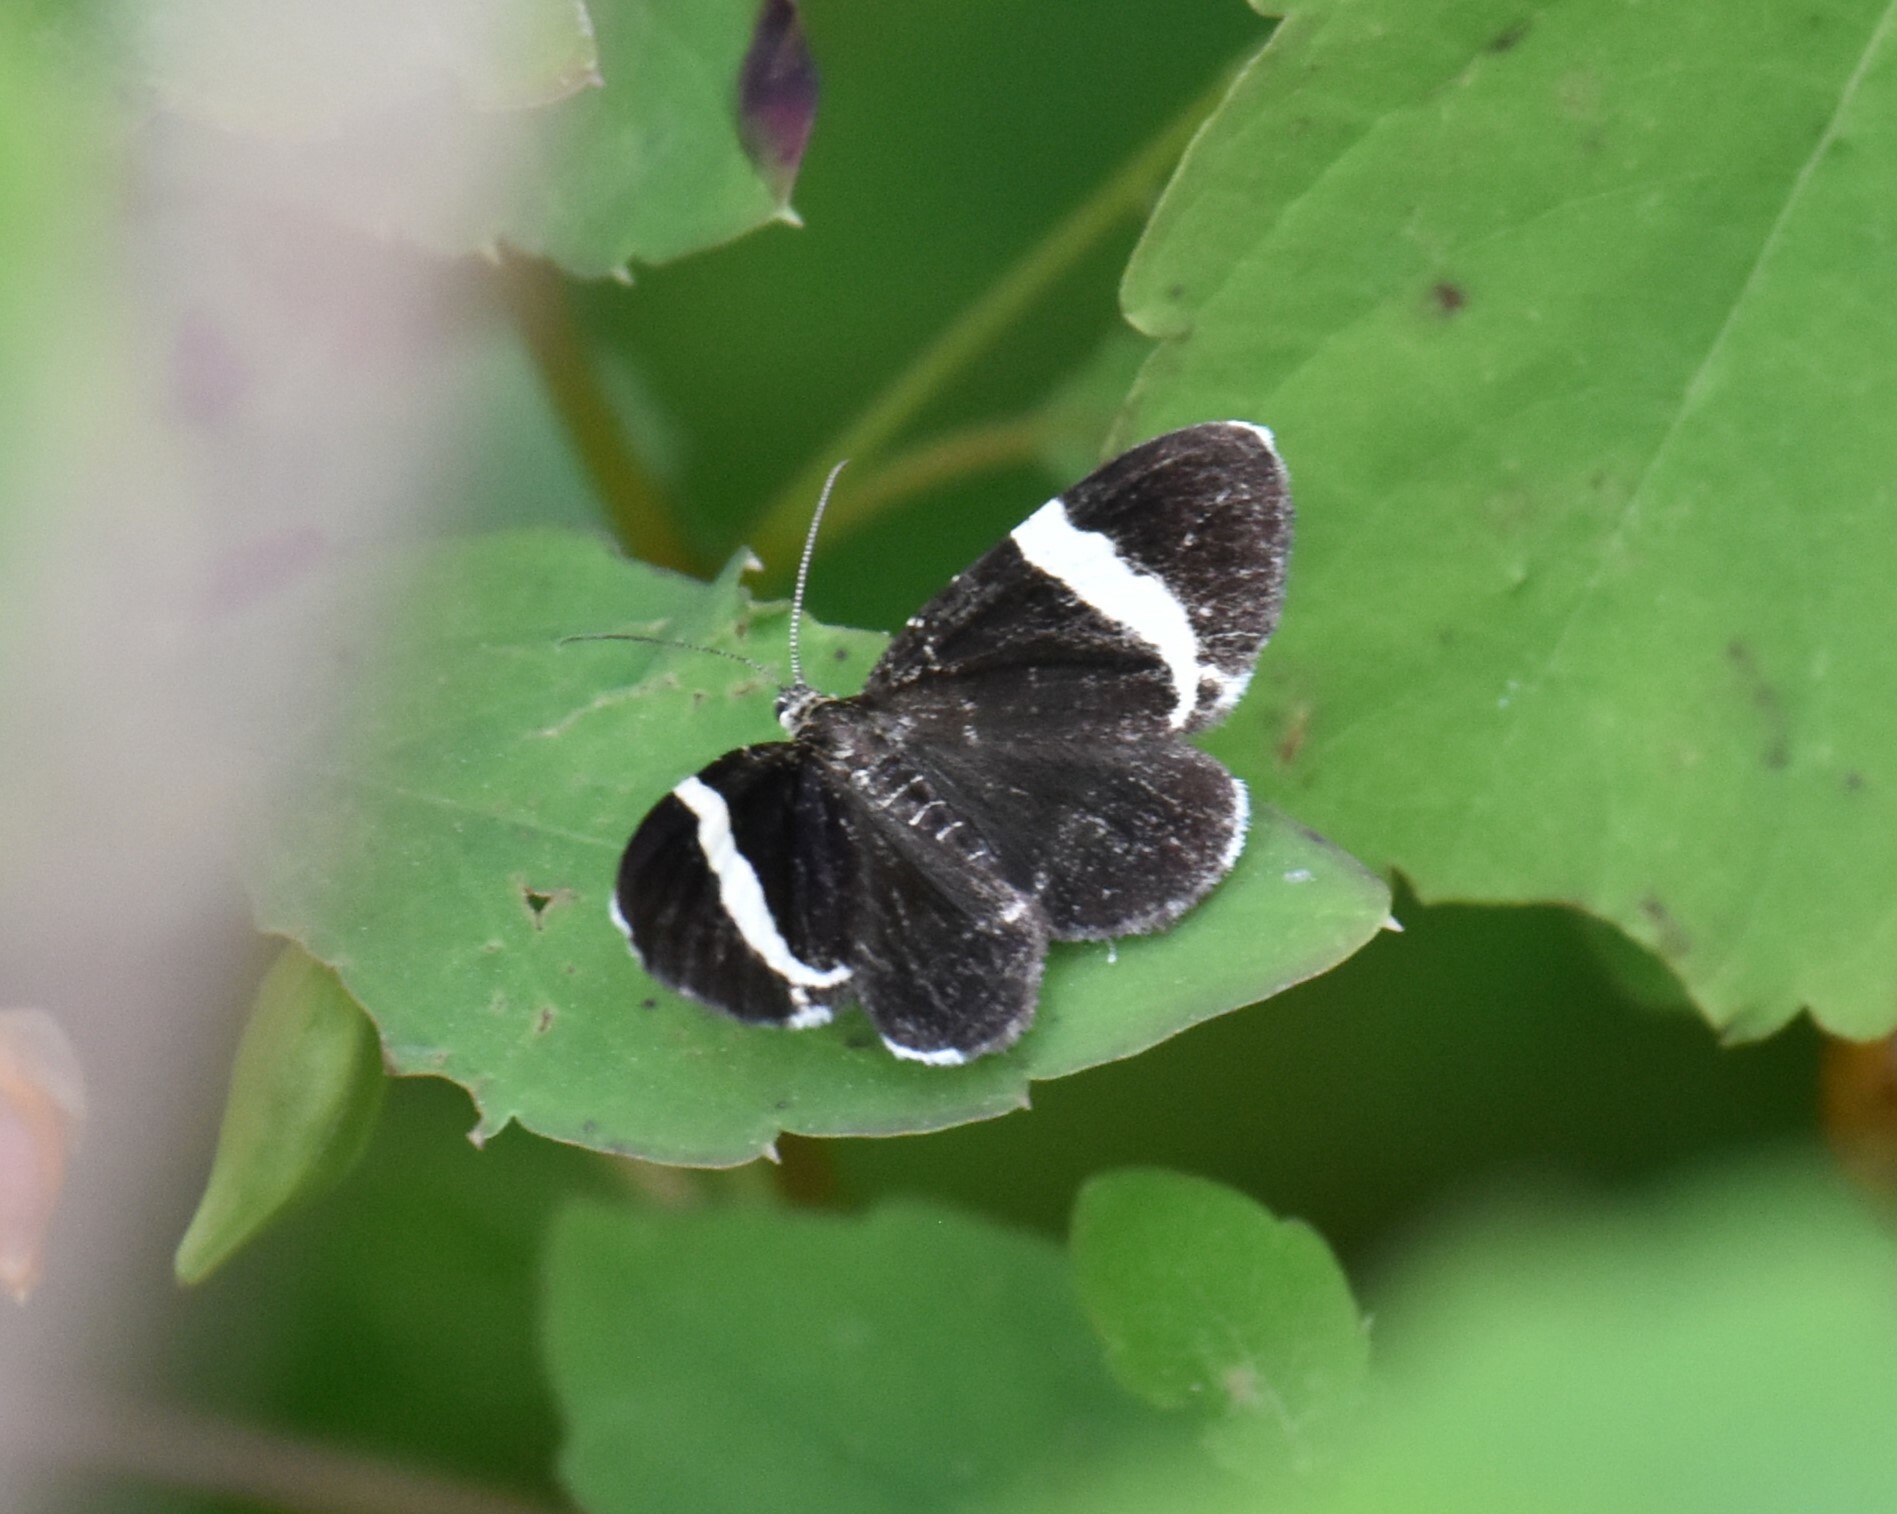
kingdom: Animalia
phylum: Arthropoda
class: Insecta
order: Lepidoptera
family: Geometridae
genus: Trichodezia
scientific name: Trichodezia albovittata
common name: White striped black
